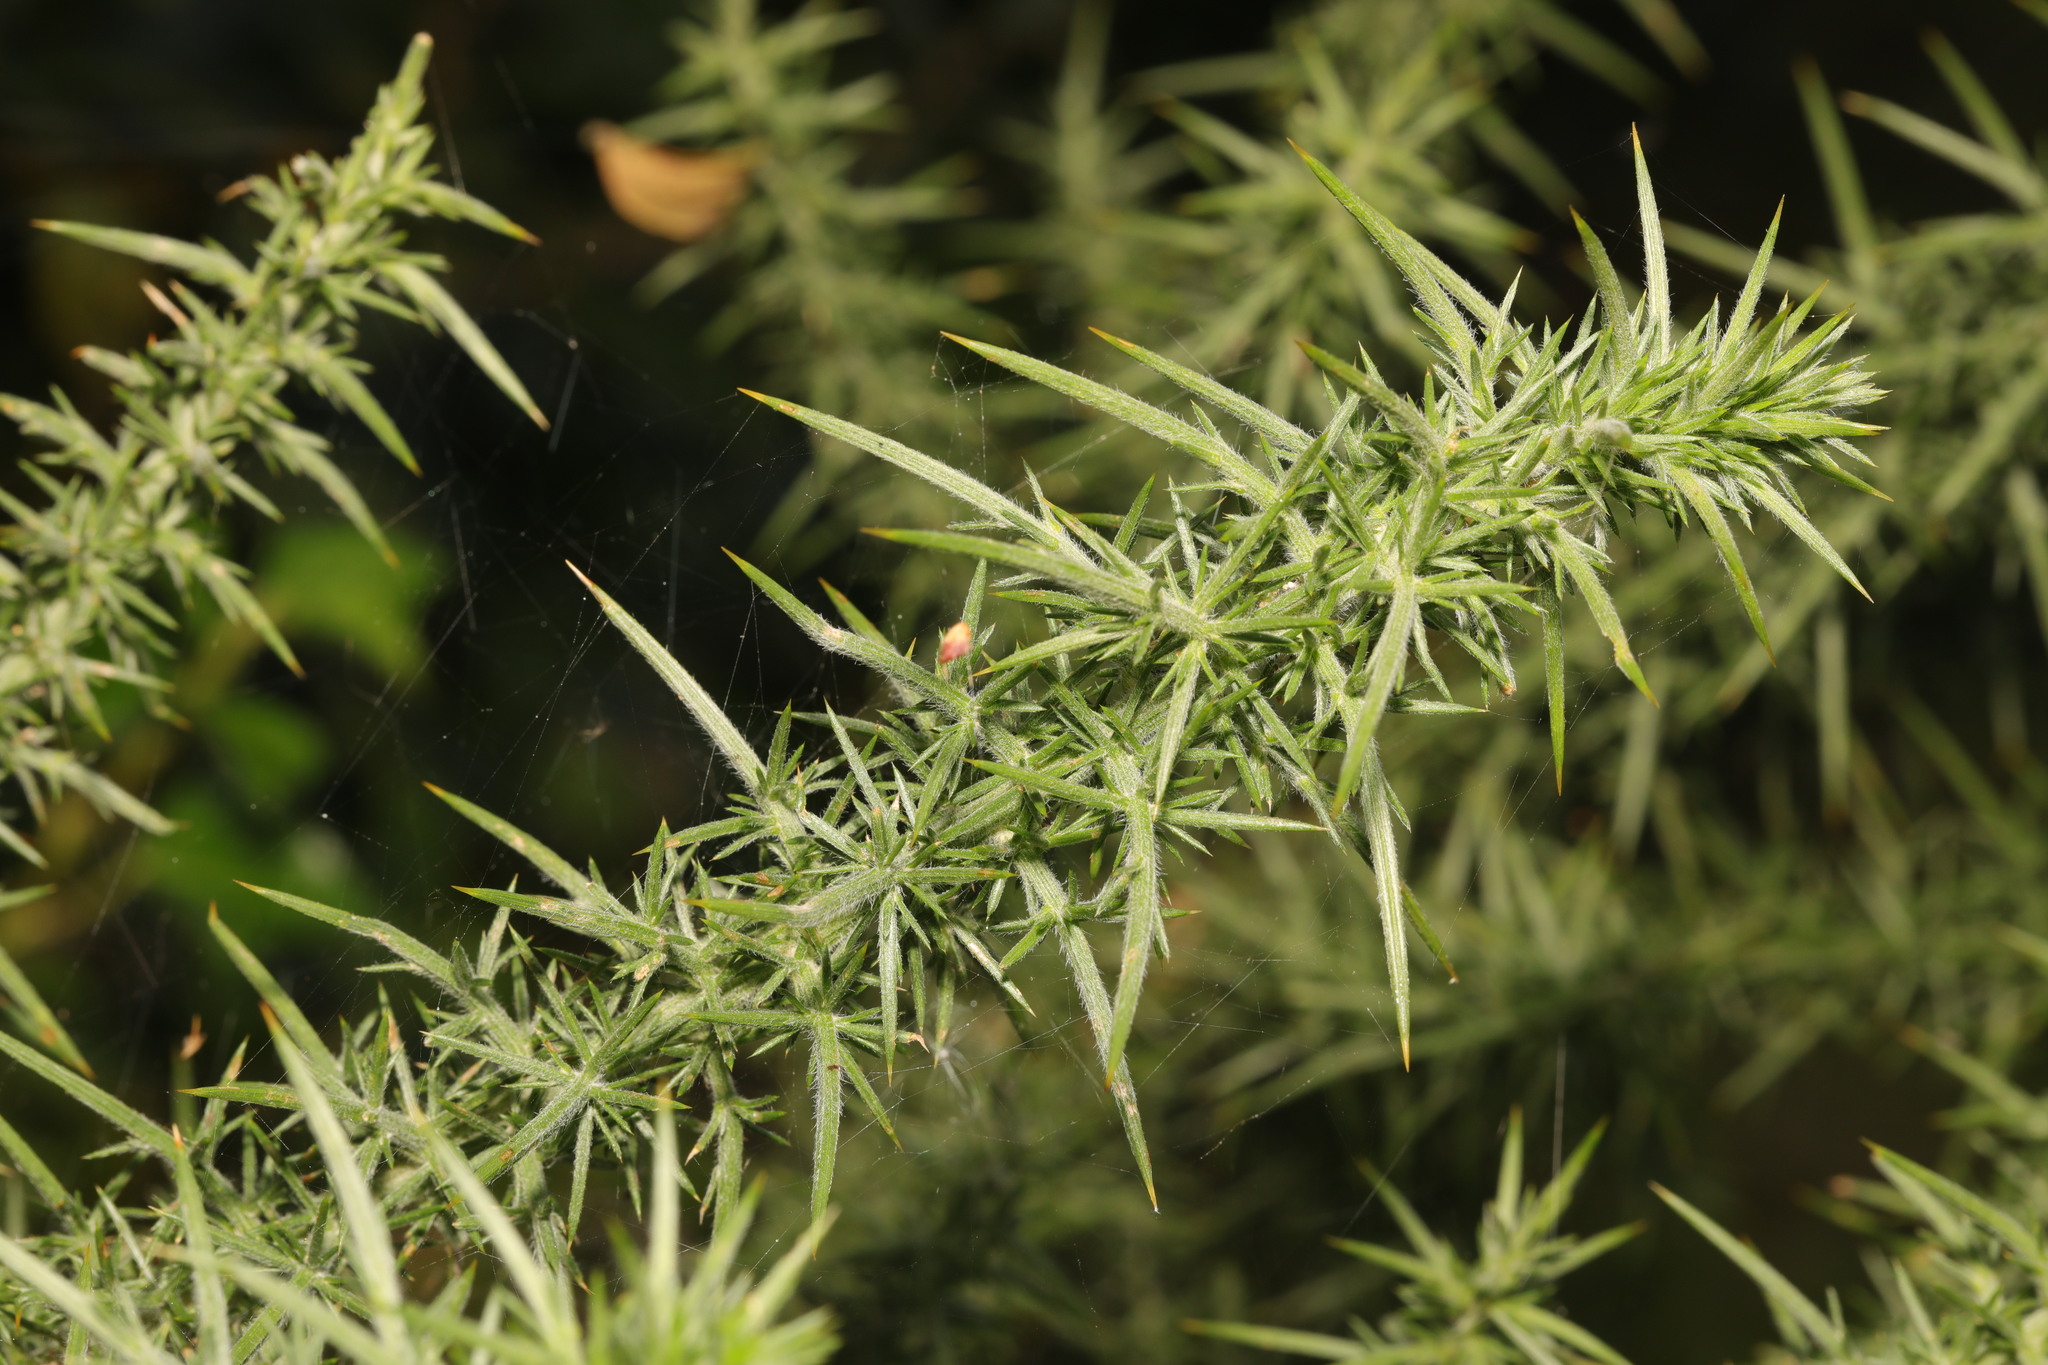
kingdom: Plantae
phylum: Tracheophyta
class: Magnoliopsida
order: Fabales
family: Fabaceae
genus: Ulex
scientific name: Ulex europaeus
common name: Common gorse
